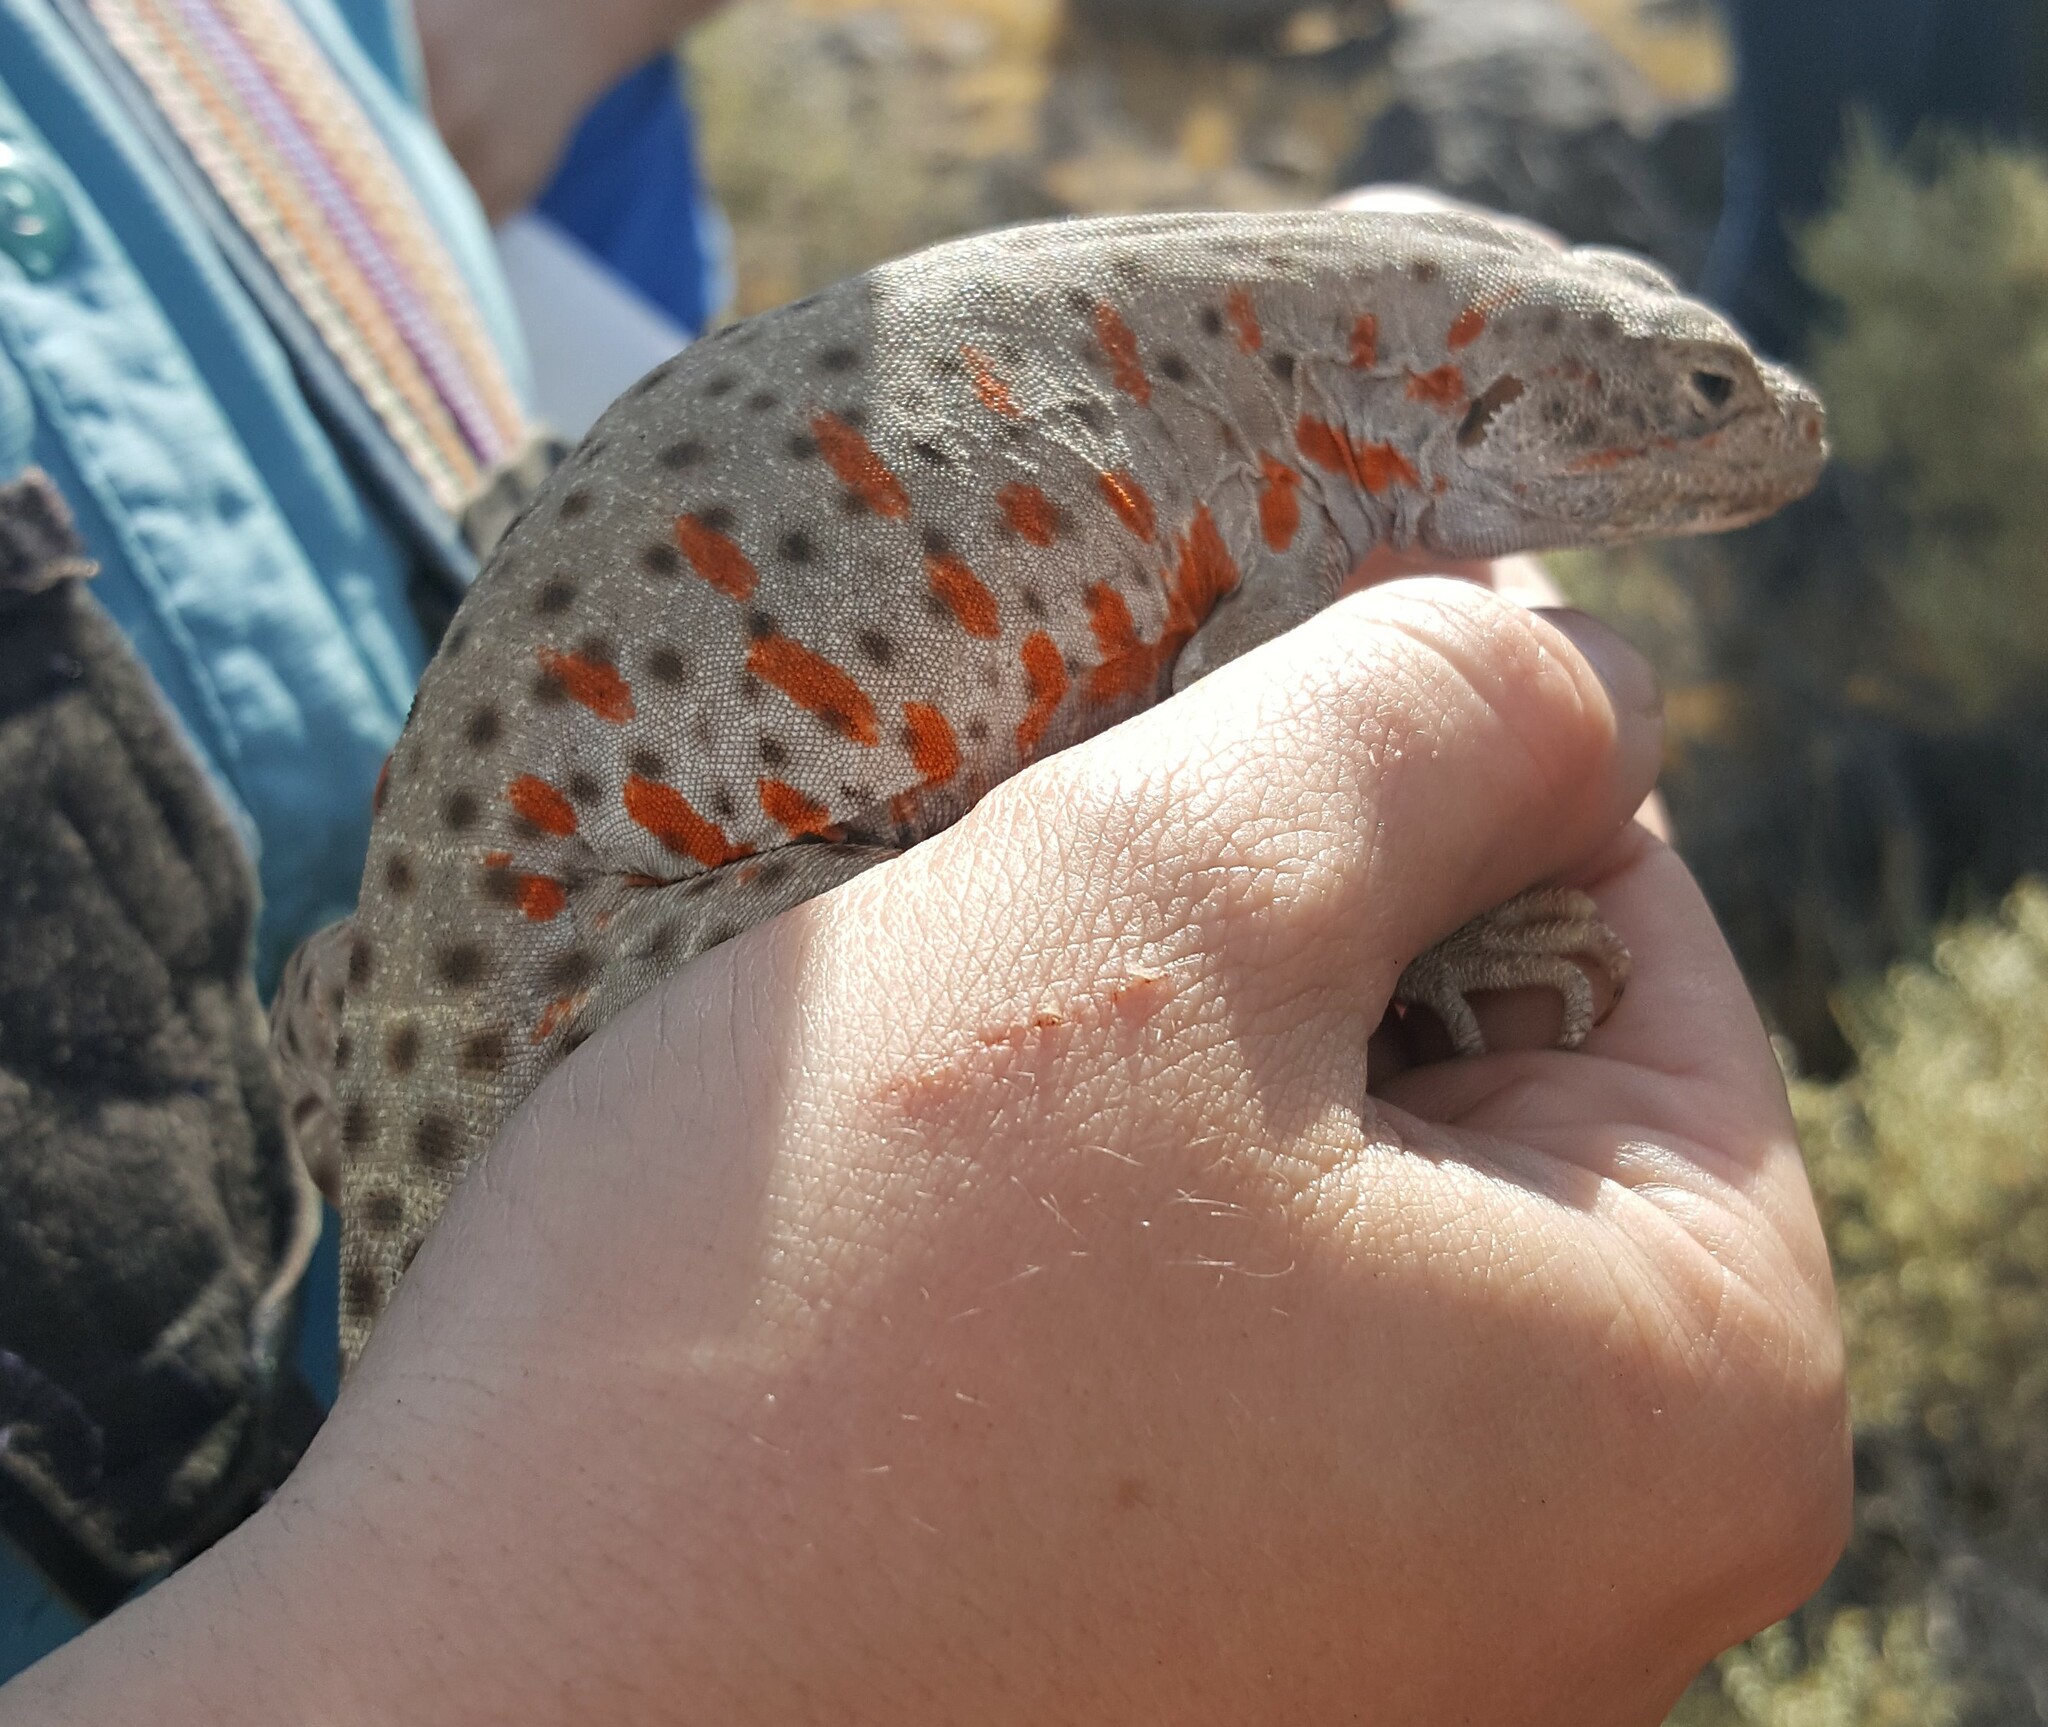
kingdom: Animalia
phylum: Chordata
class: Squamata
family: Crotaphytidae
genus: Gambelia
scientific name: Gambelia wislizenii
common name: Longnose leopard lizard
